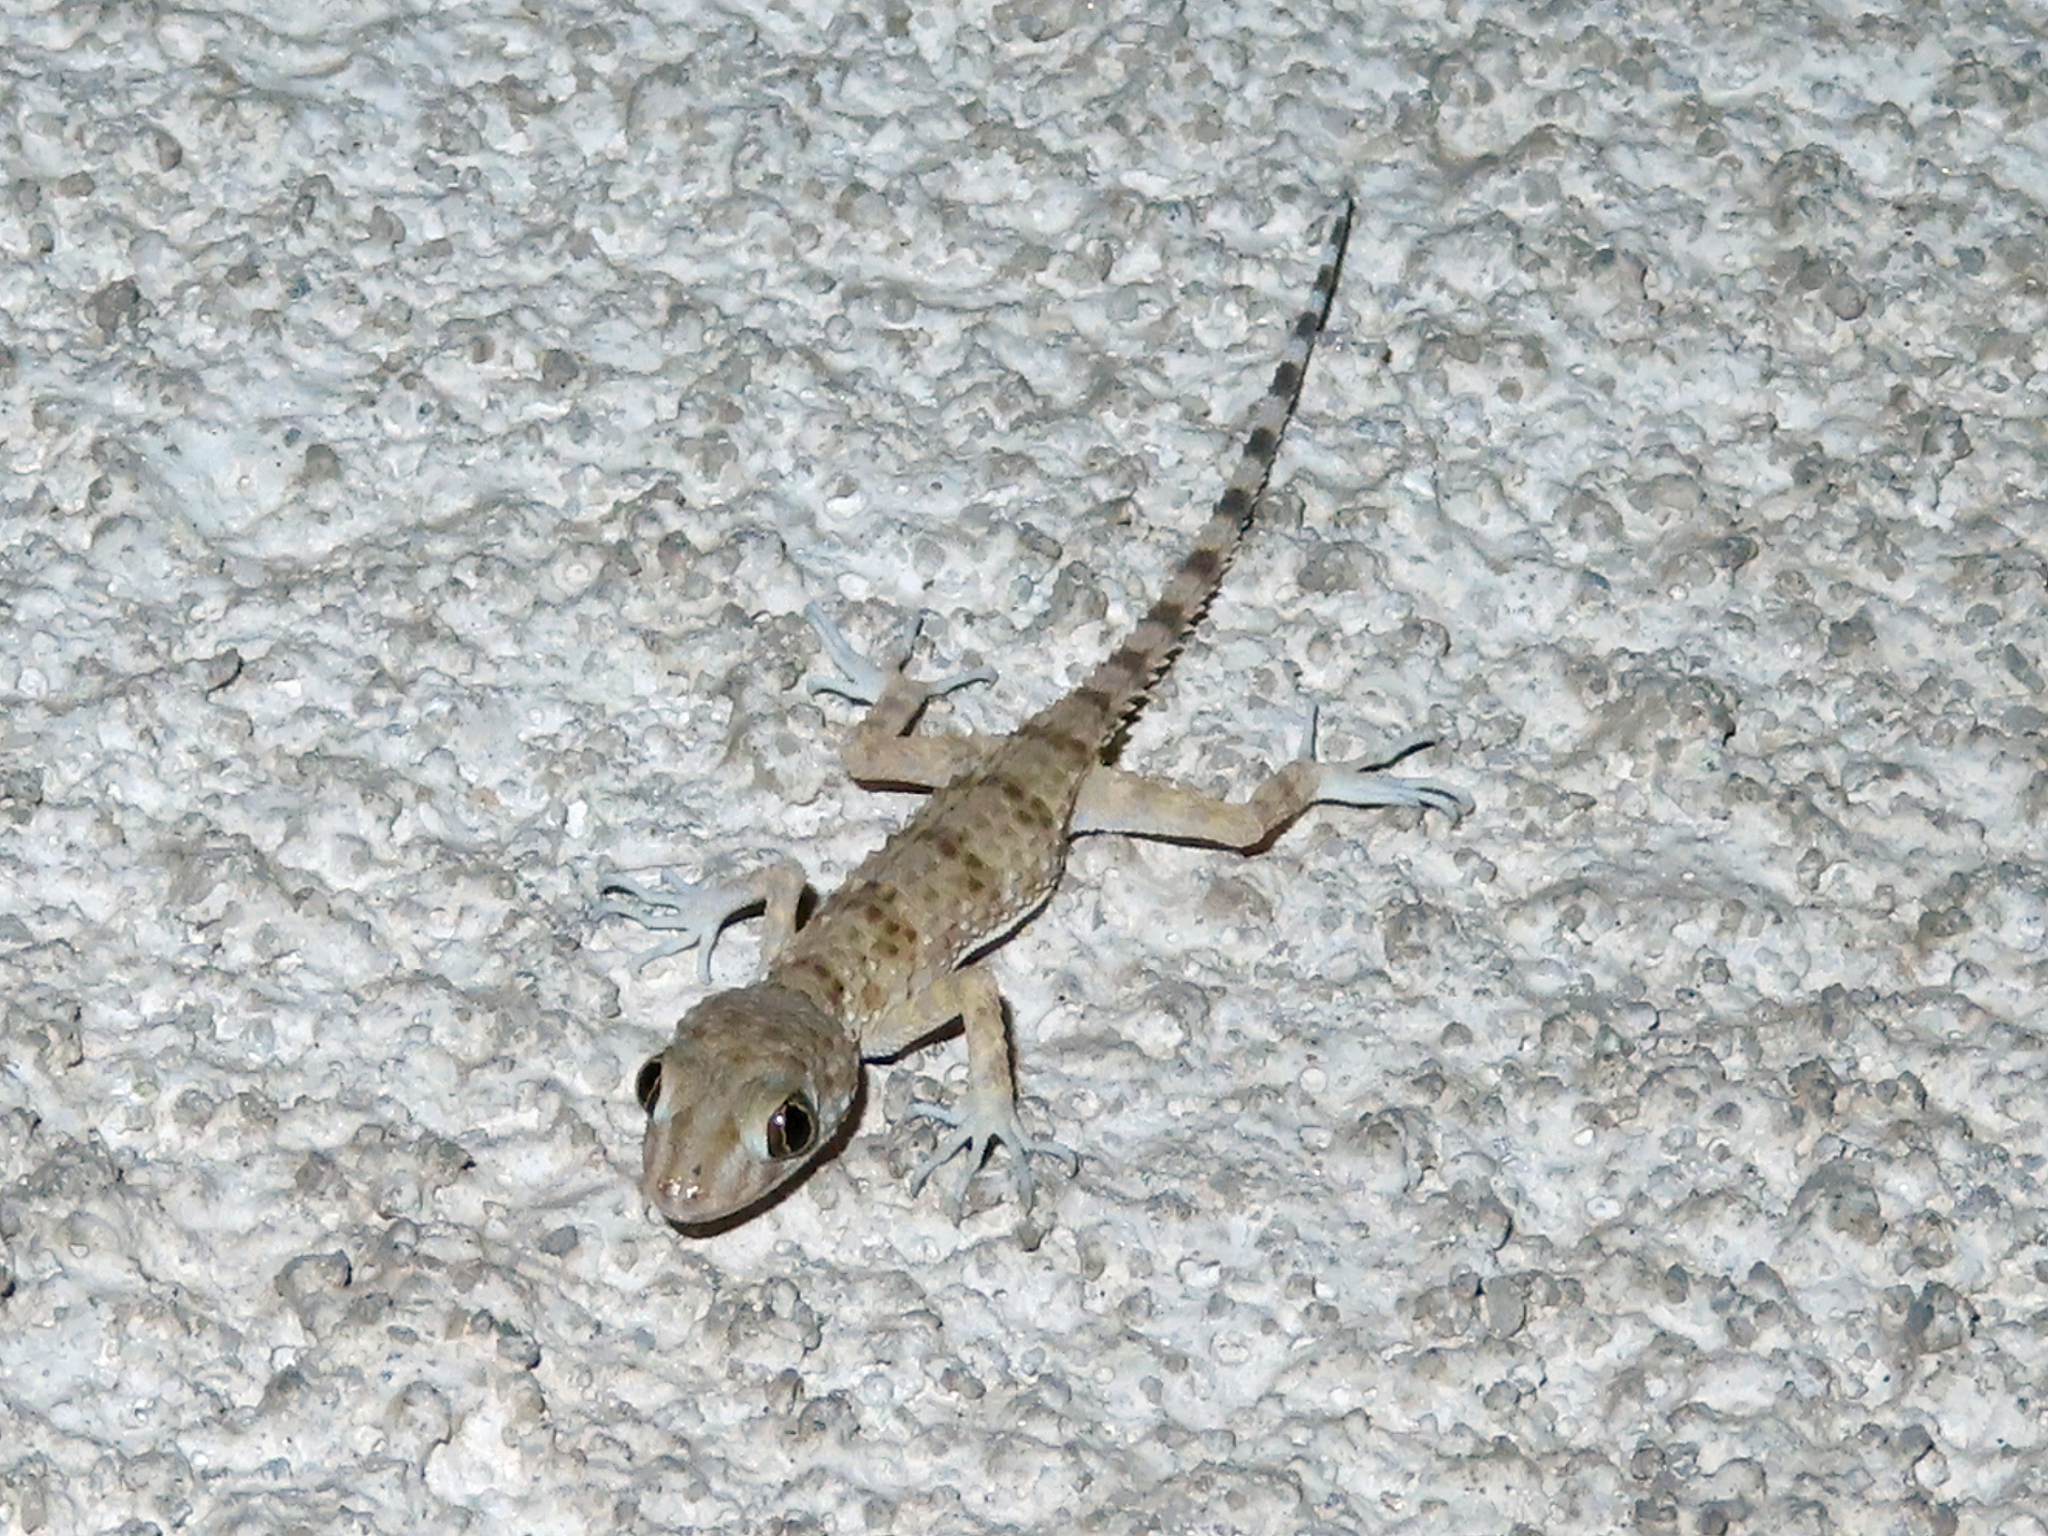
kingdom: Animalia
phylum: Chordata
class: Squamata
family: Gekkonidae
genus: Tenuidactylus
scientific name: Tenuidactylus caspius
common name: Caspian bent-toed gecko
